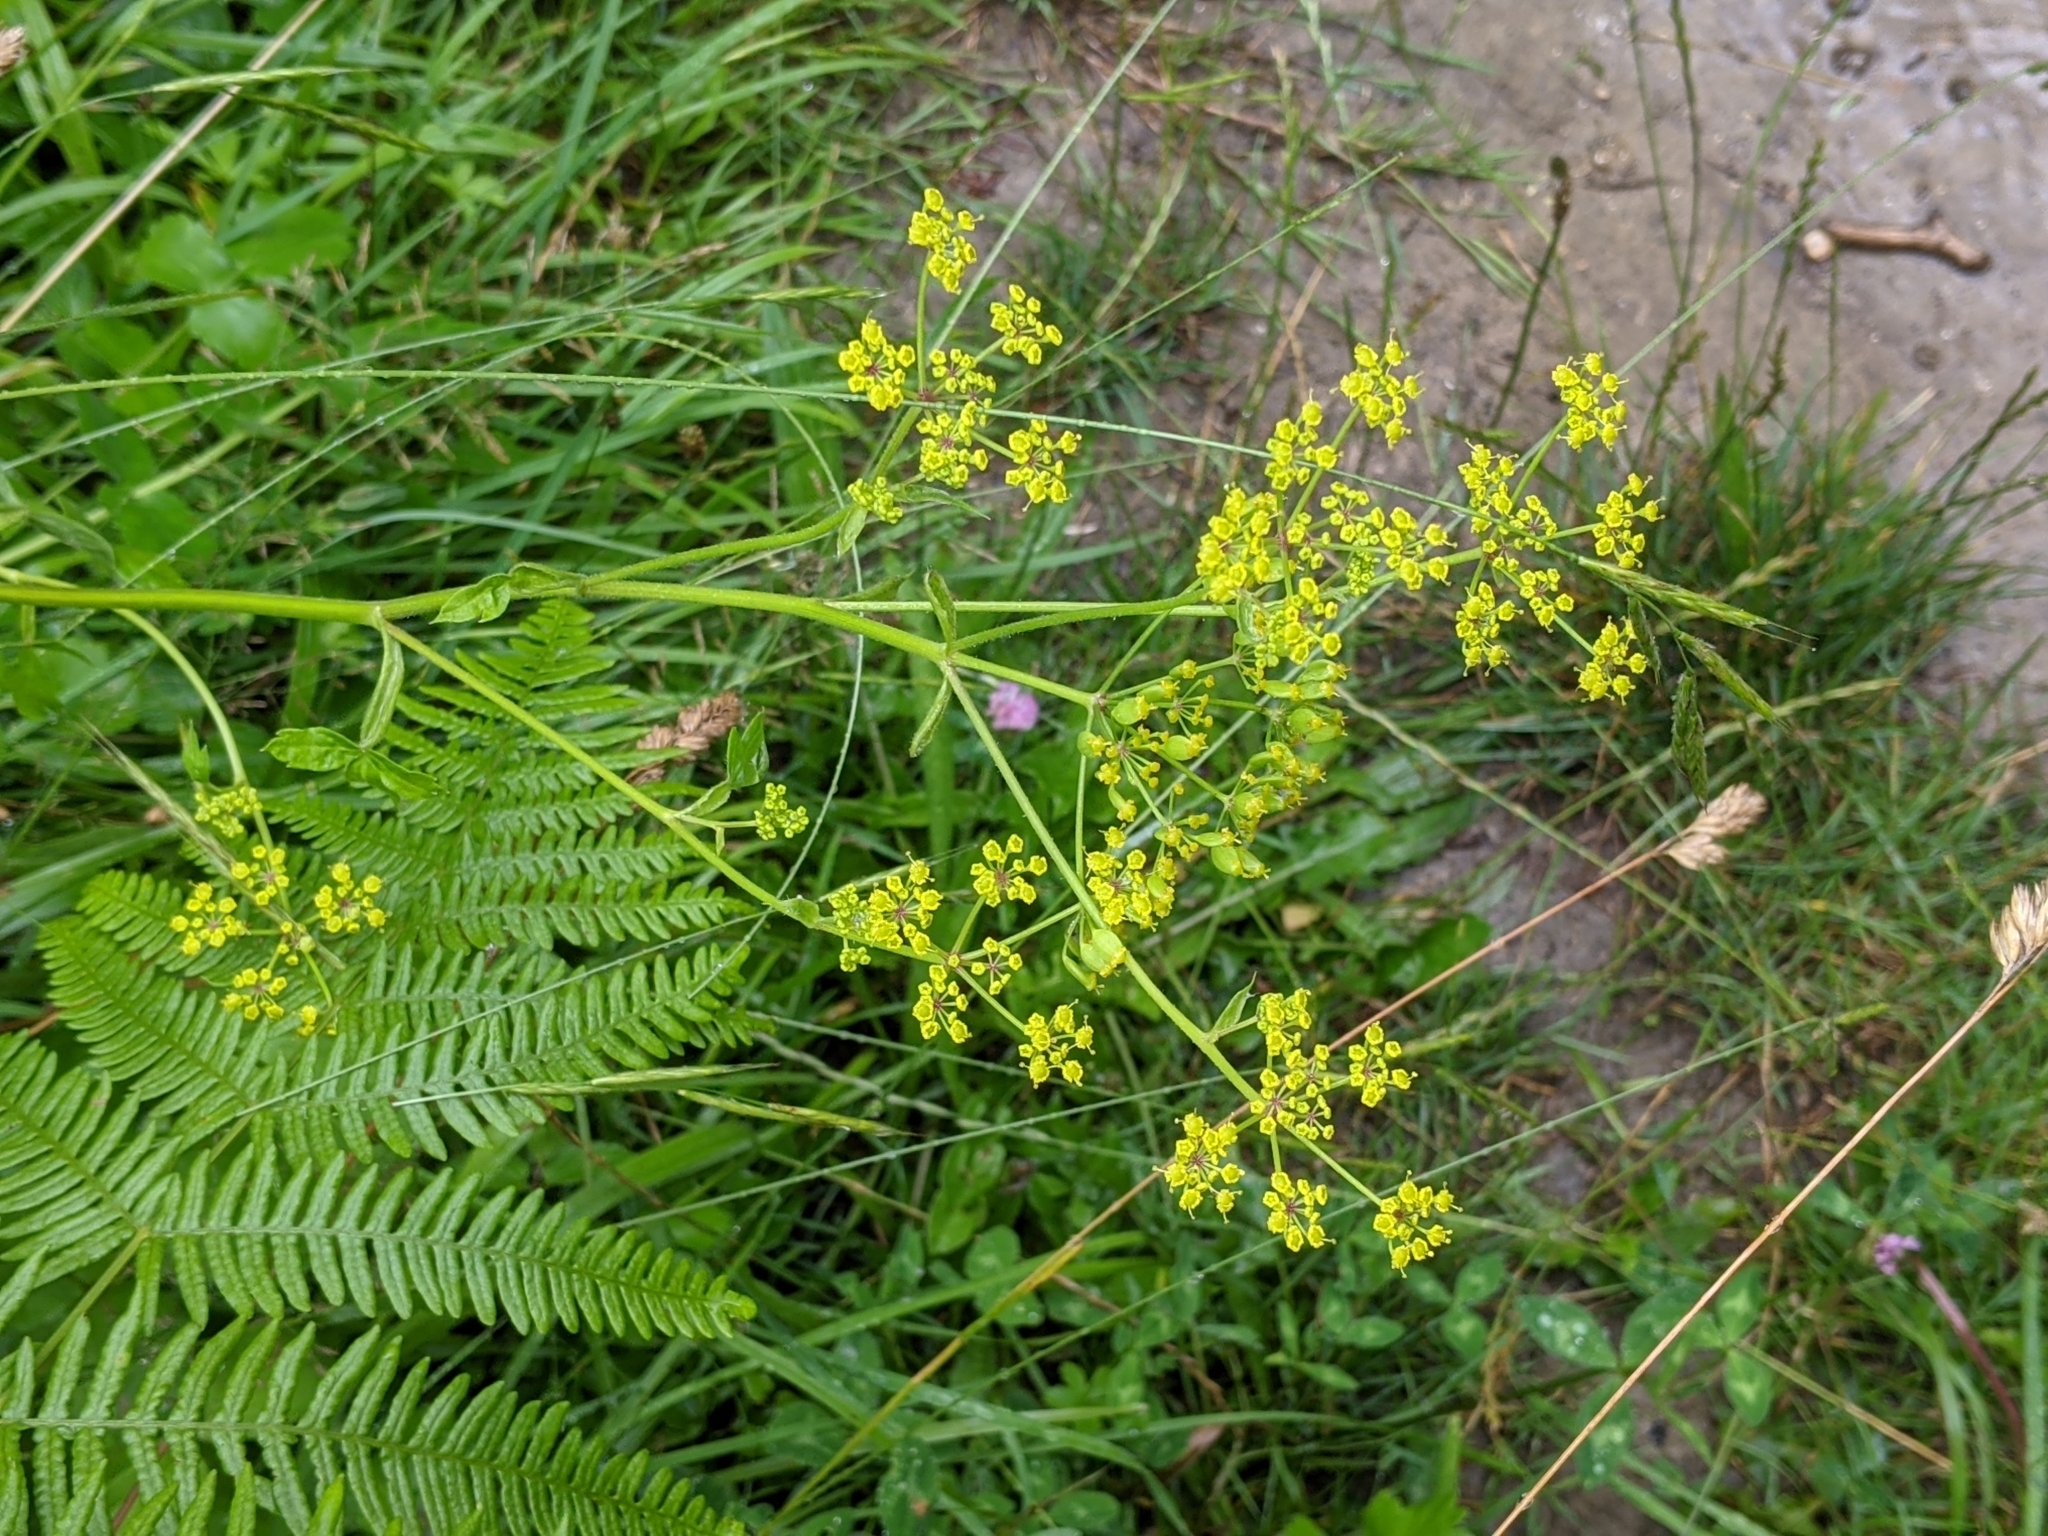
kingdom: Plantae
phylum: Tracheophyta
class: Magnoliopsida
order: Apiales
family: Apiaceae
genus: Pastinaca
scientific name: Pastinaca sativa
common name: Wild parsnip
